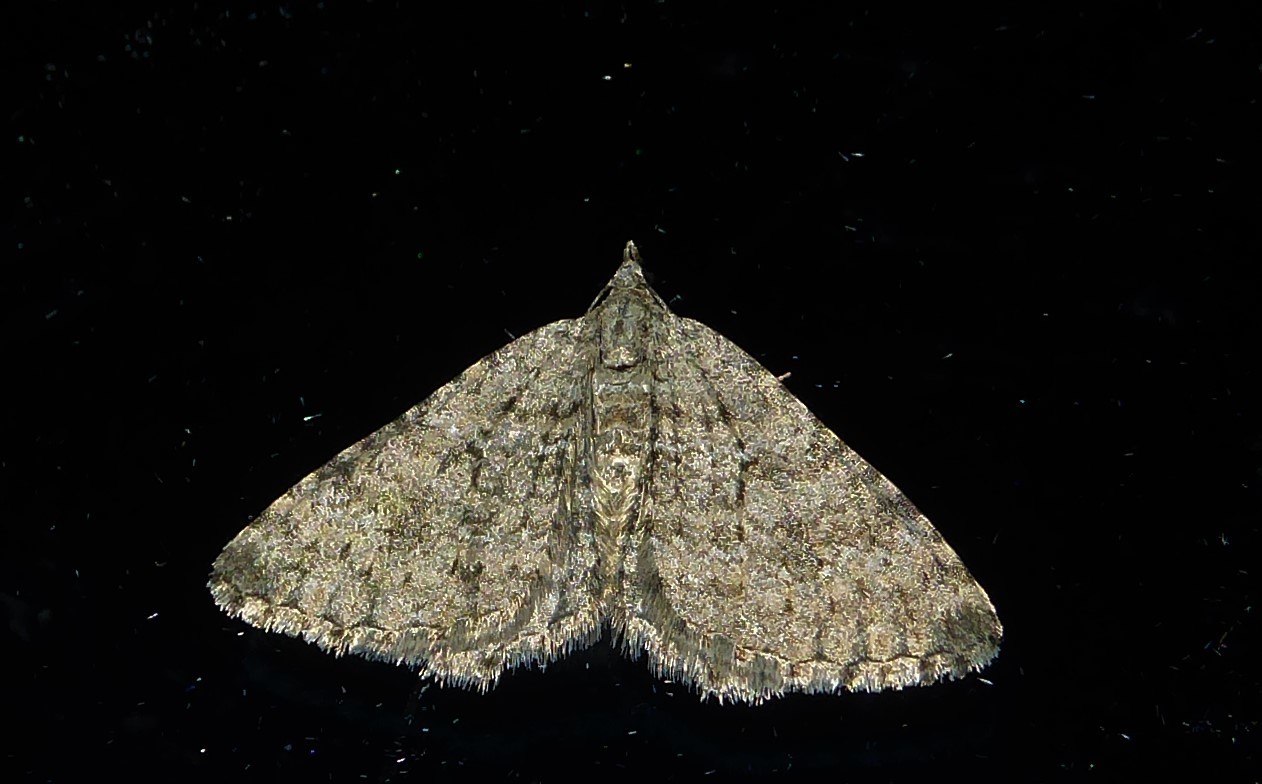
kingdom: Animalia
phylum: Arthropoda
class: Insecta
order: Lepidoptera
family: Geometridae
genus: Helastia
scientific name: Helastia corcularia
